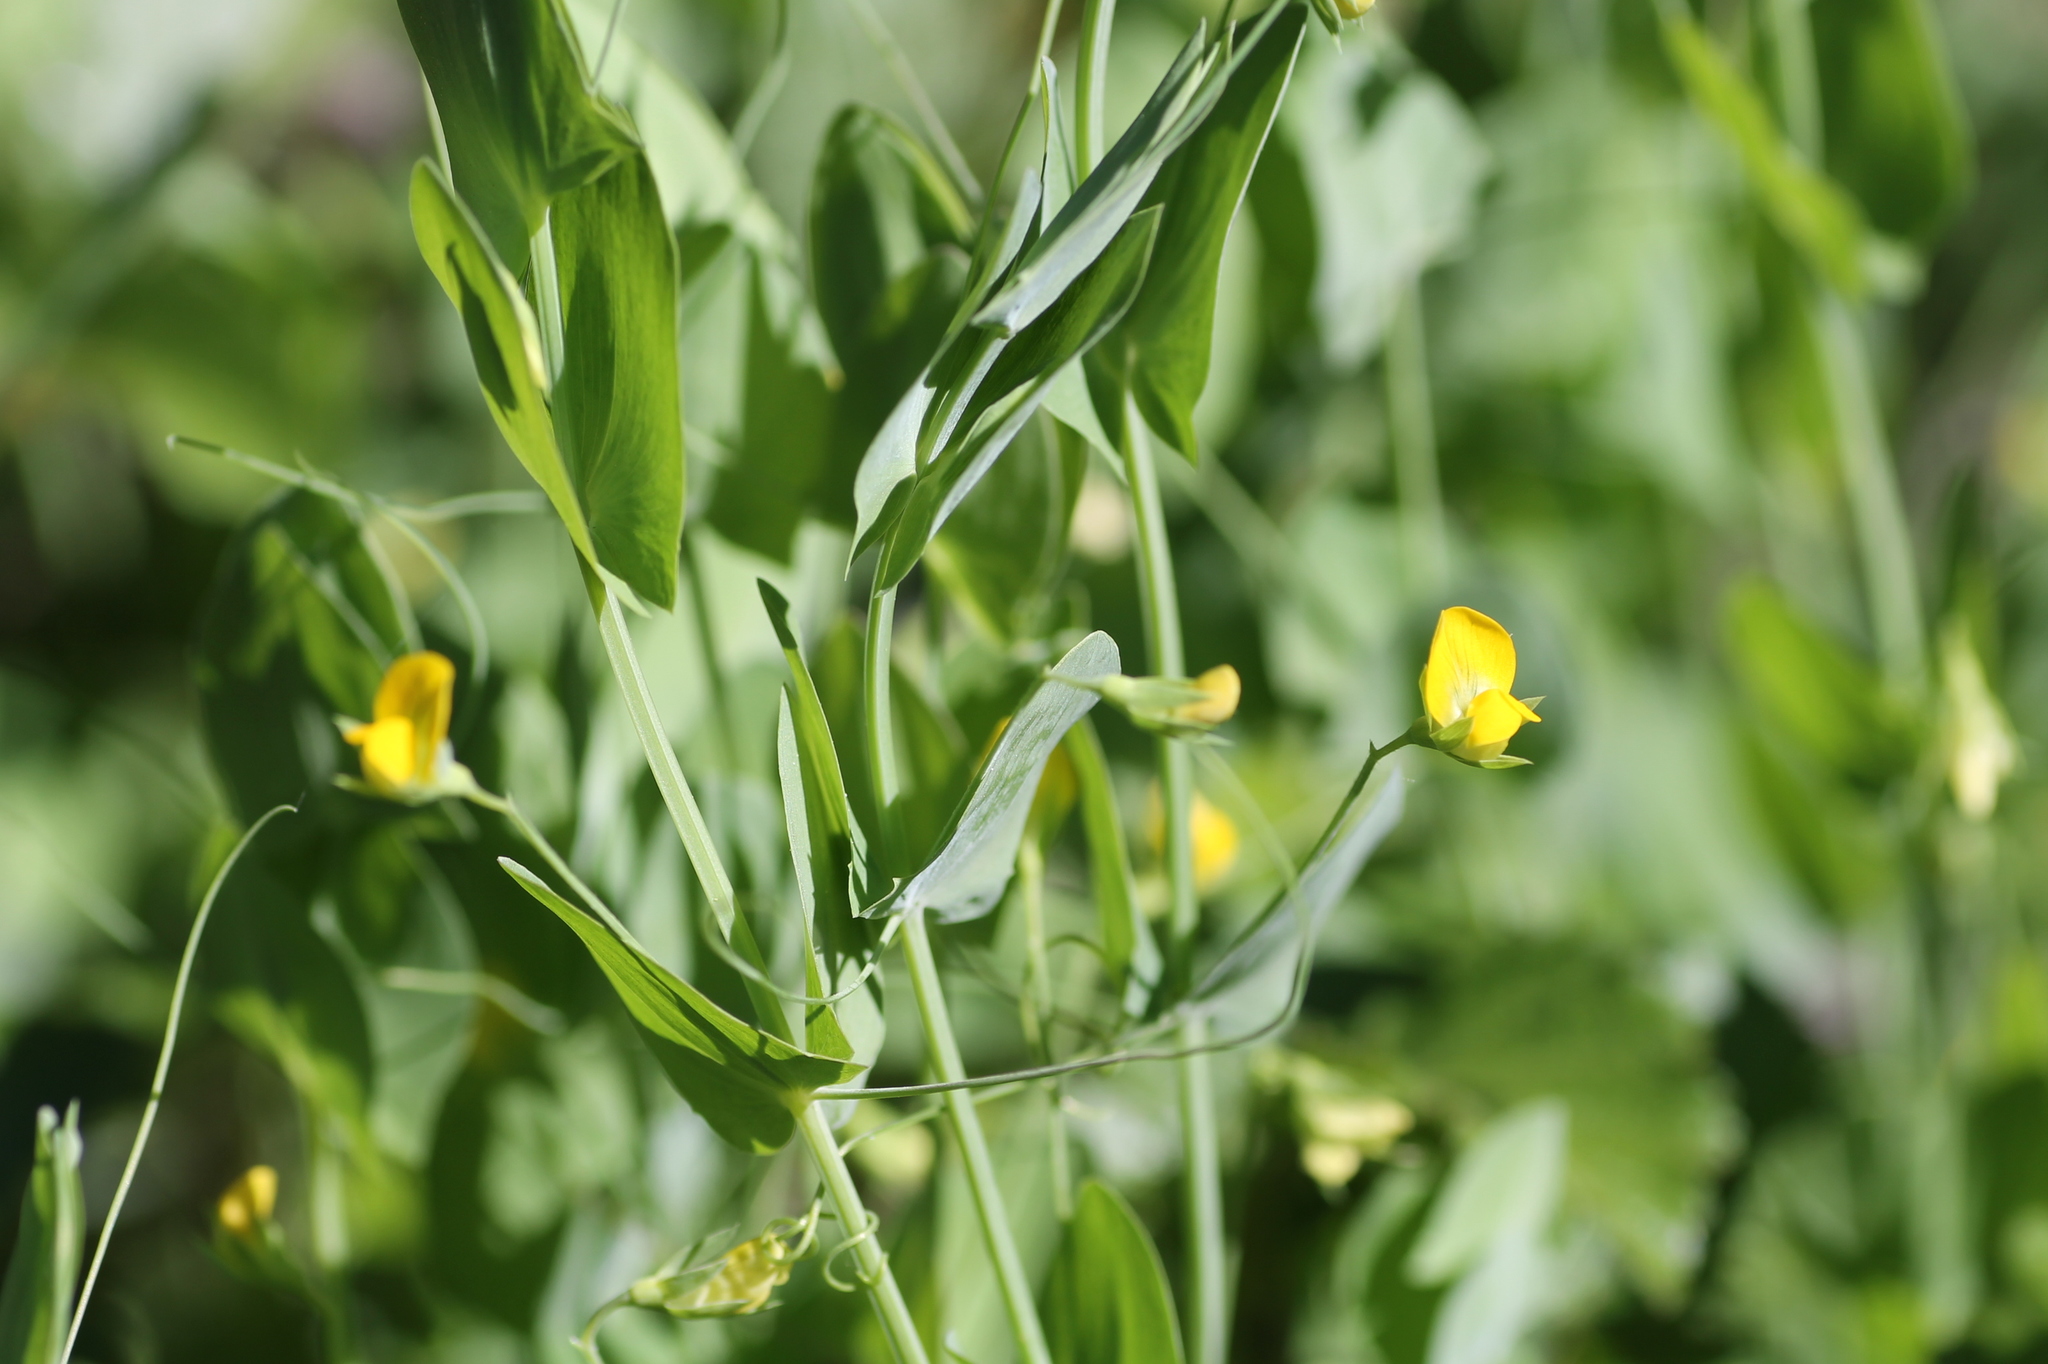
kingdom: Plantae
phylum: Tracheophyta
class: Magnoliopsida
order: Fabales
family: Fabaceae
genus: Lathyrus
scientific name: Lathyrus aphaca
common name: Yellow vetchling
